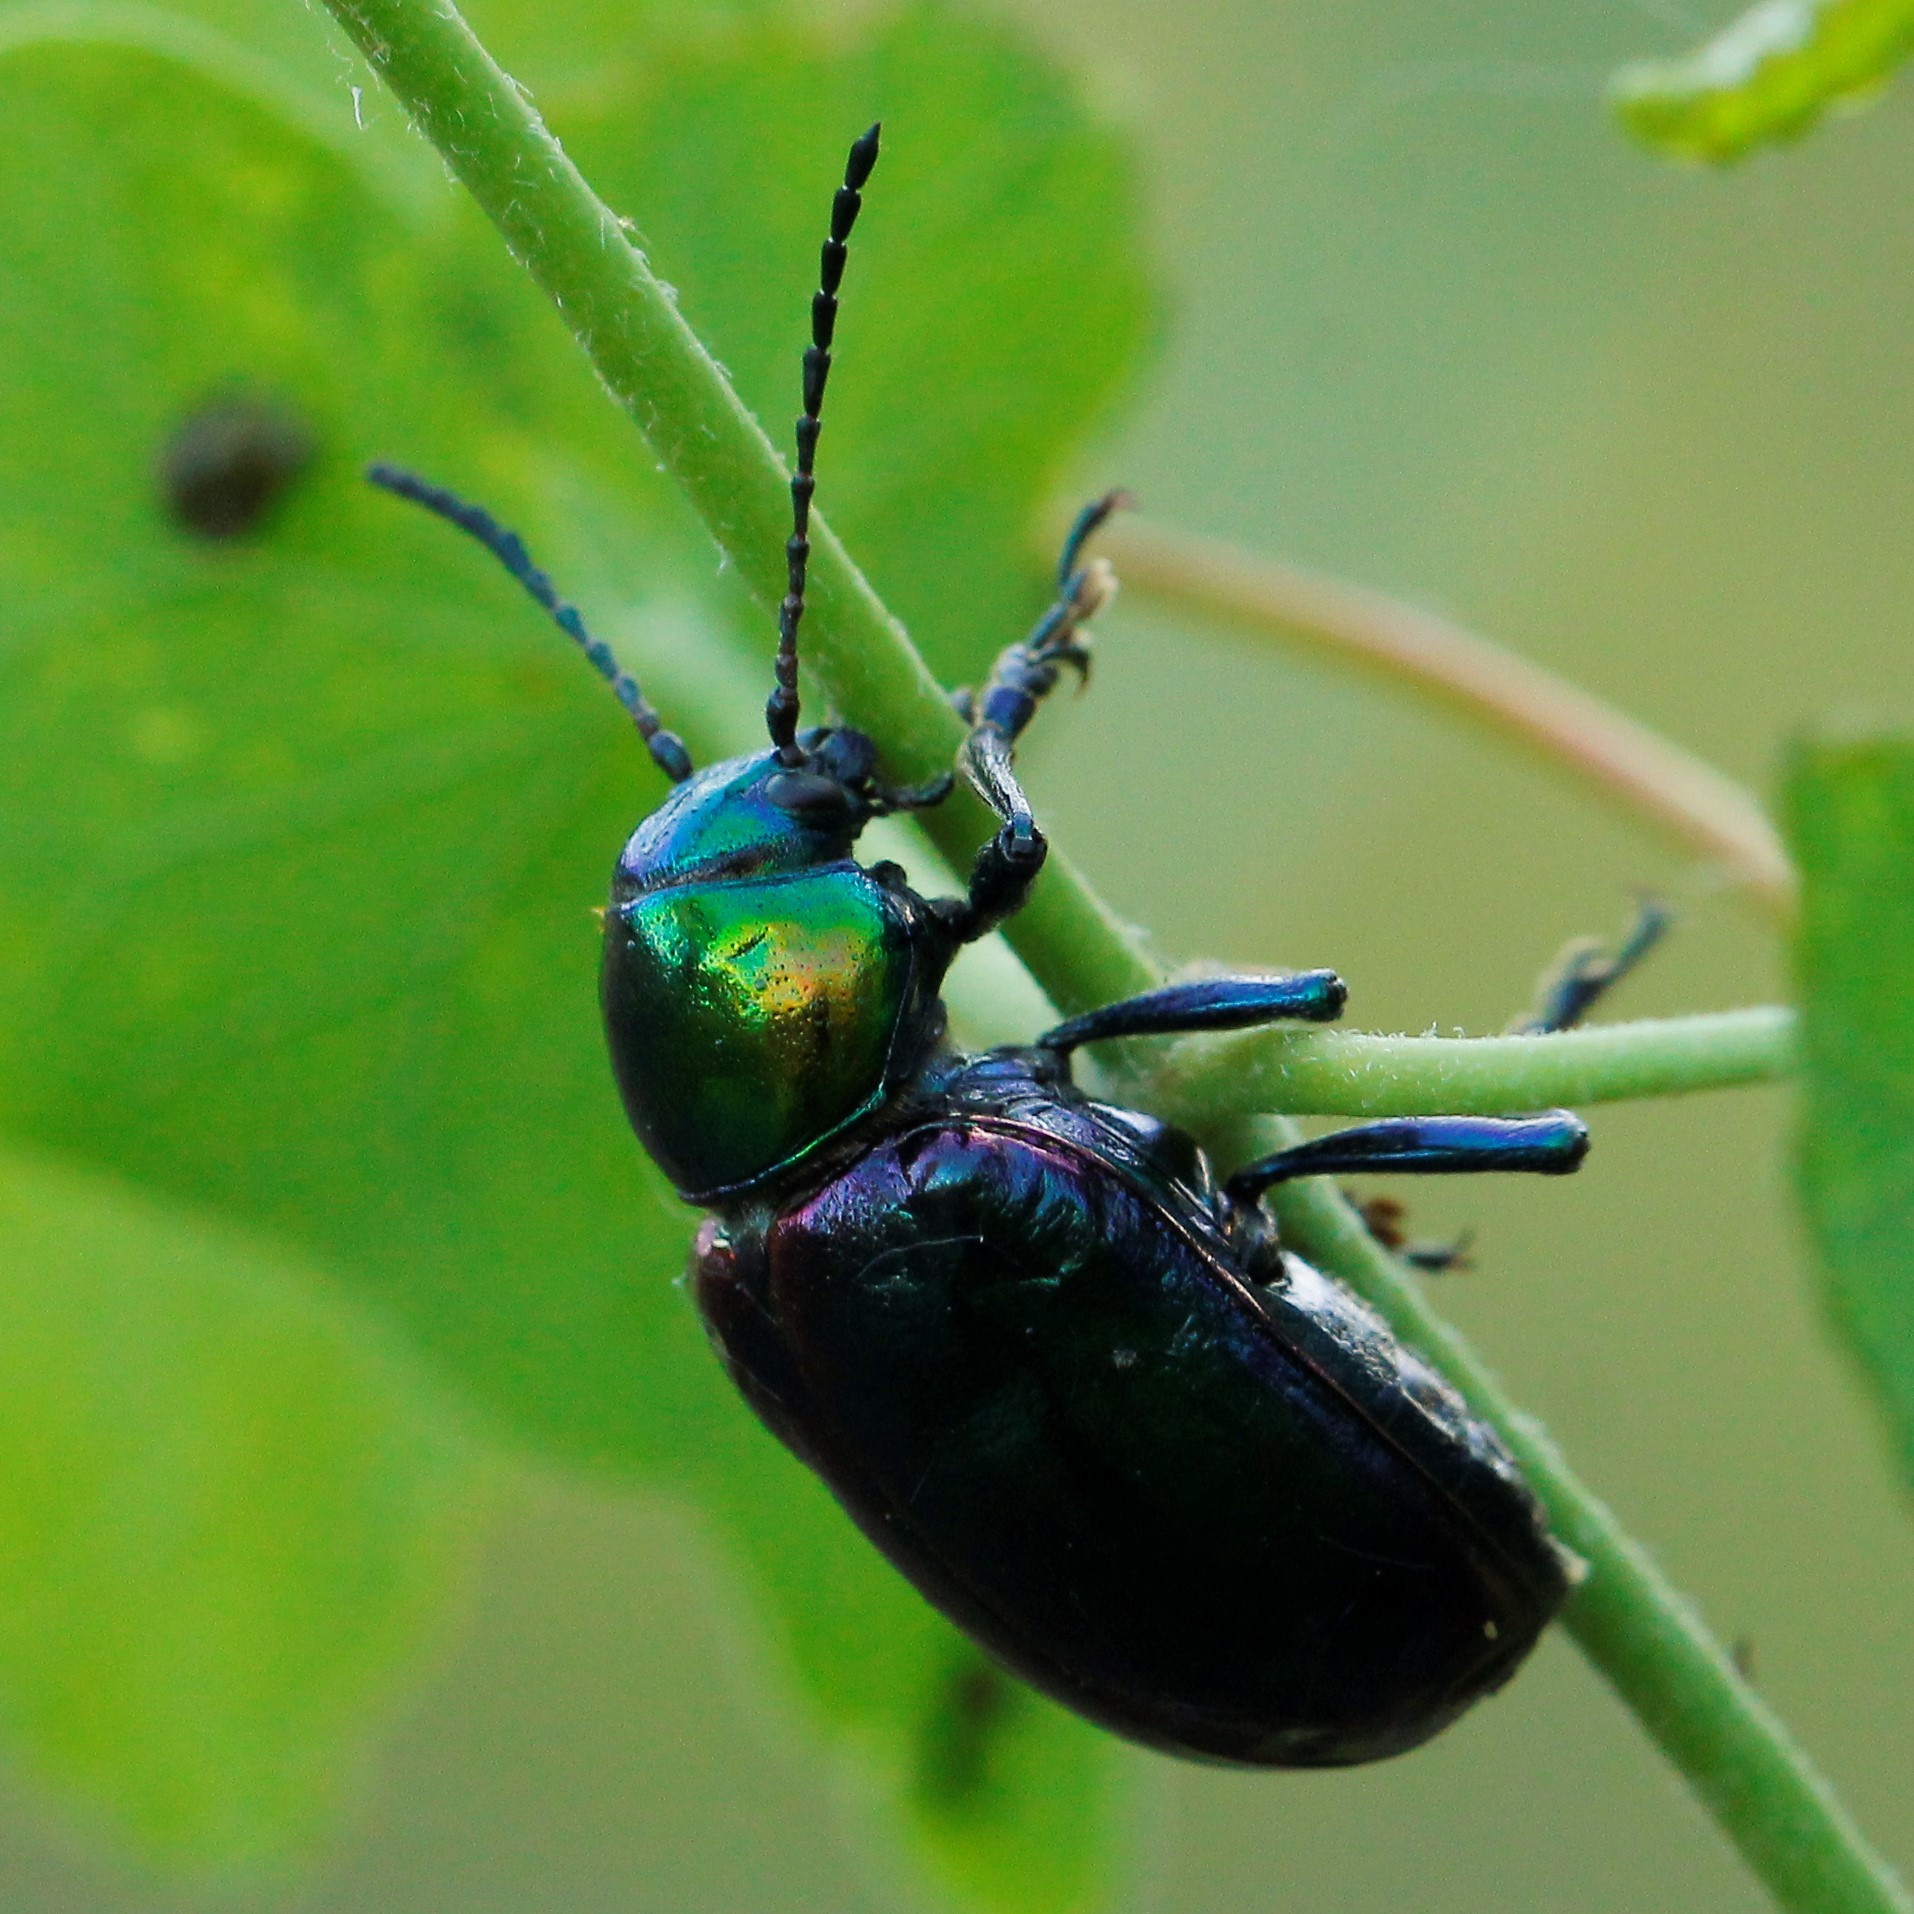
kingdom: Animalia
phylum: Arthropoda
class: Insecta
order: Coleoptera
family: Chrysomelidae
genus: Chrysochares
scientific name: Chrysochares
